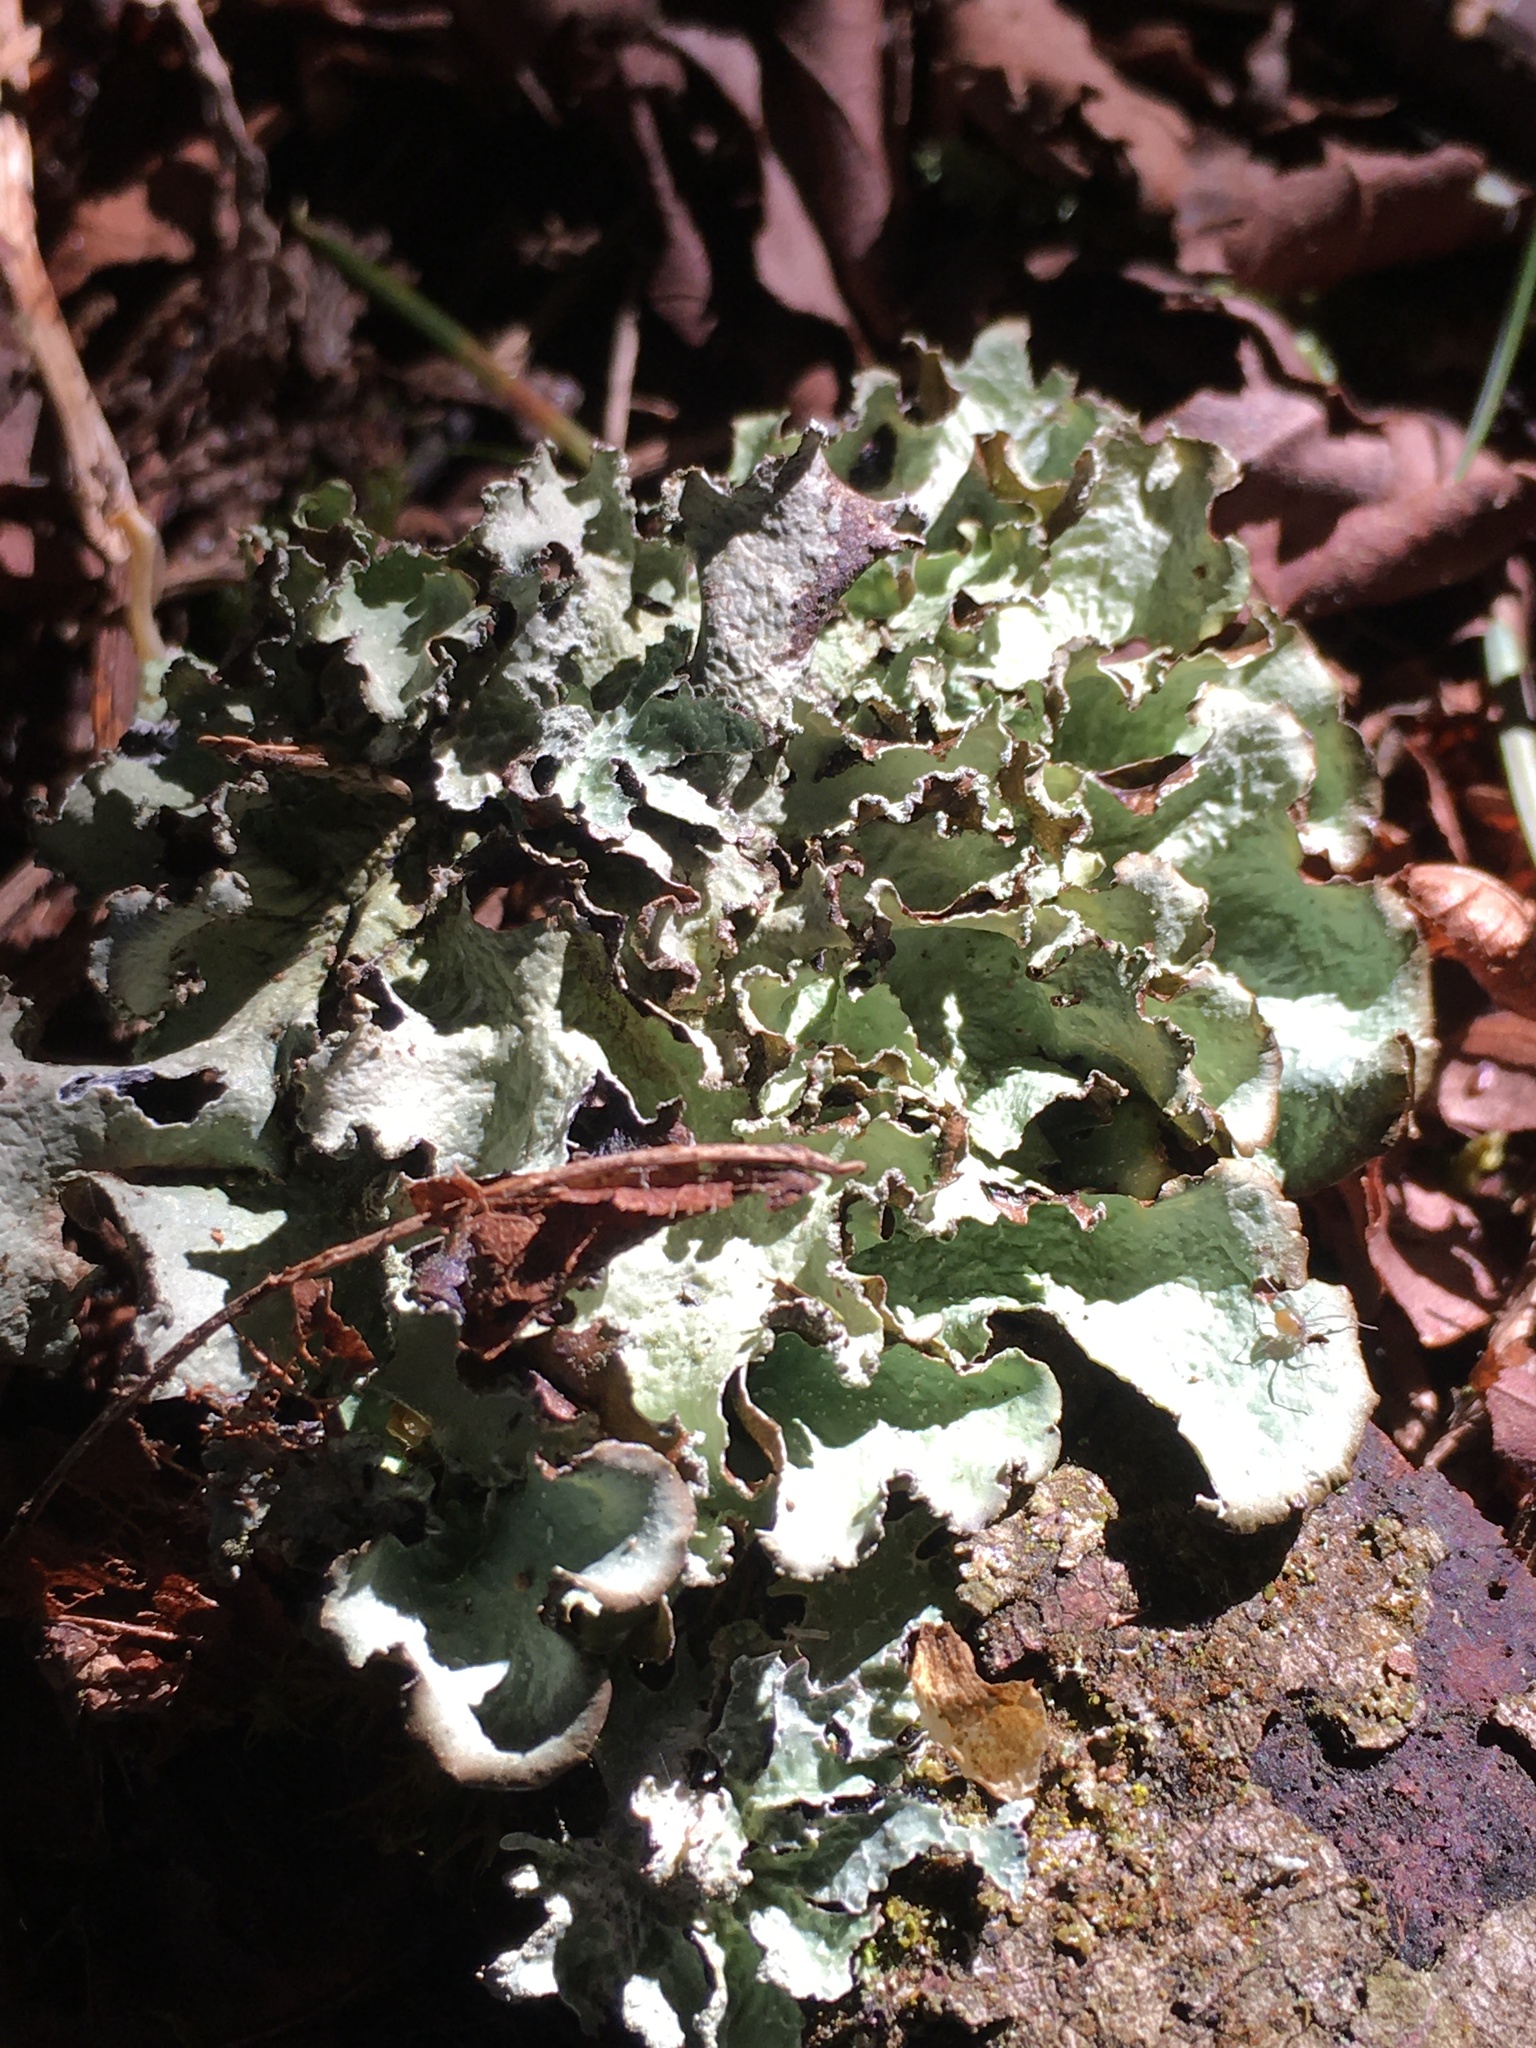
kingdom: Fungi
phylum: Ascomycota
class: Lecanoromycetes
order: Lecanorales
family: Parmeliaceae
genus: Cetrelia
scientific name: Cetrelia cetrarioides
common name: Speckled iceland lichen
